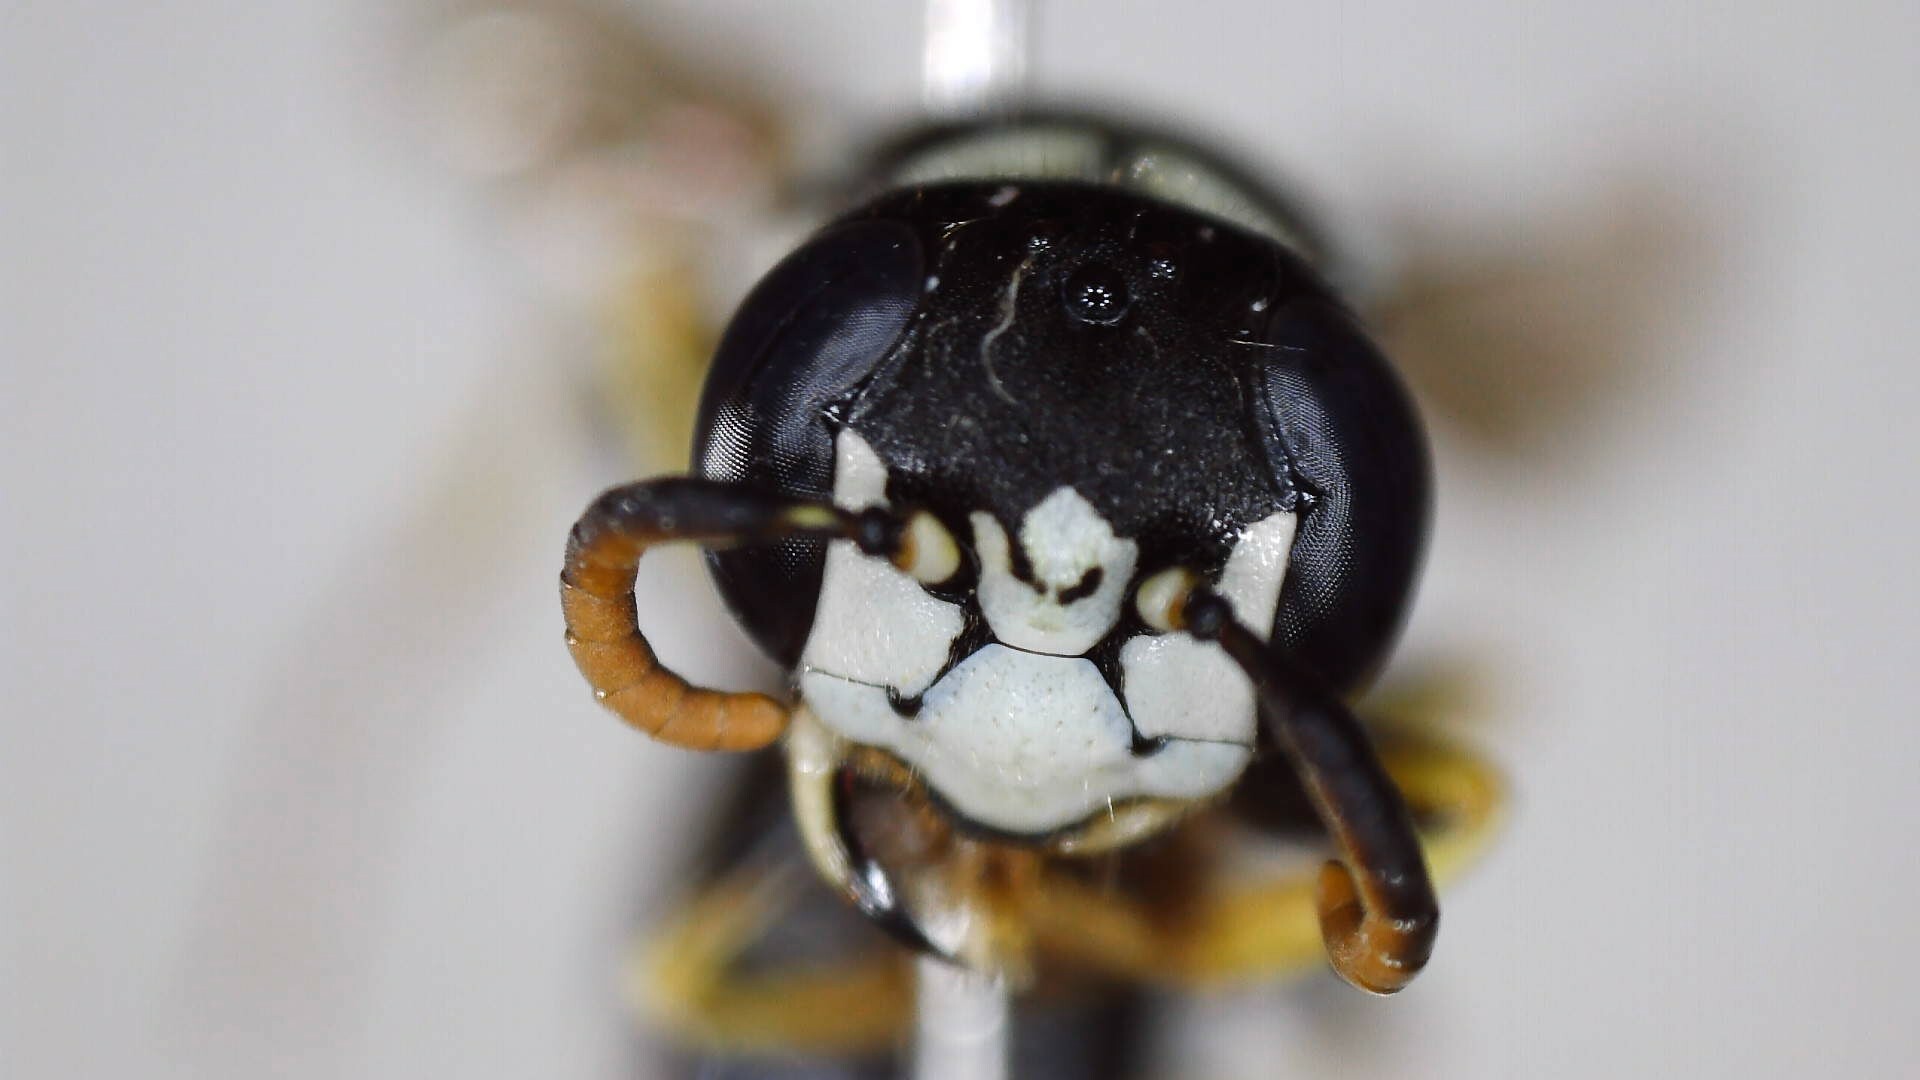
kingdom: Animalia
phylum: Arthropoda
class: Insecta
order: Hymenoptera
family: Crabronidae
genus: Philanthus
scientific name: Philanthus politus
